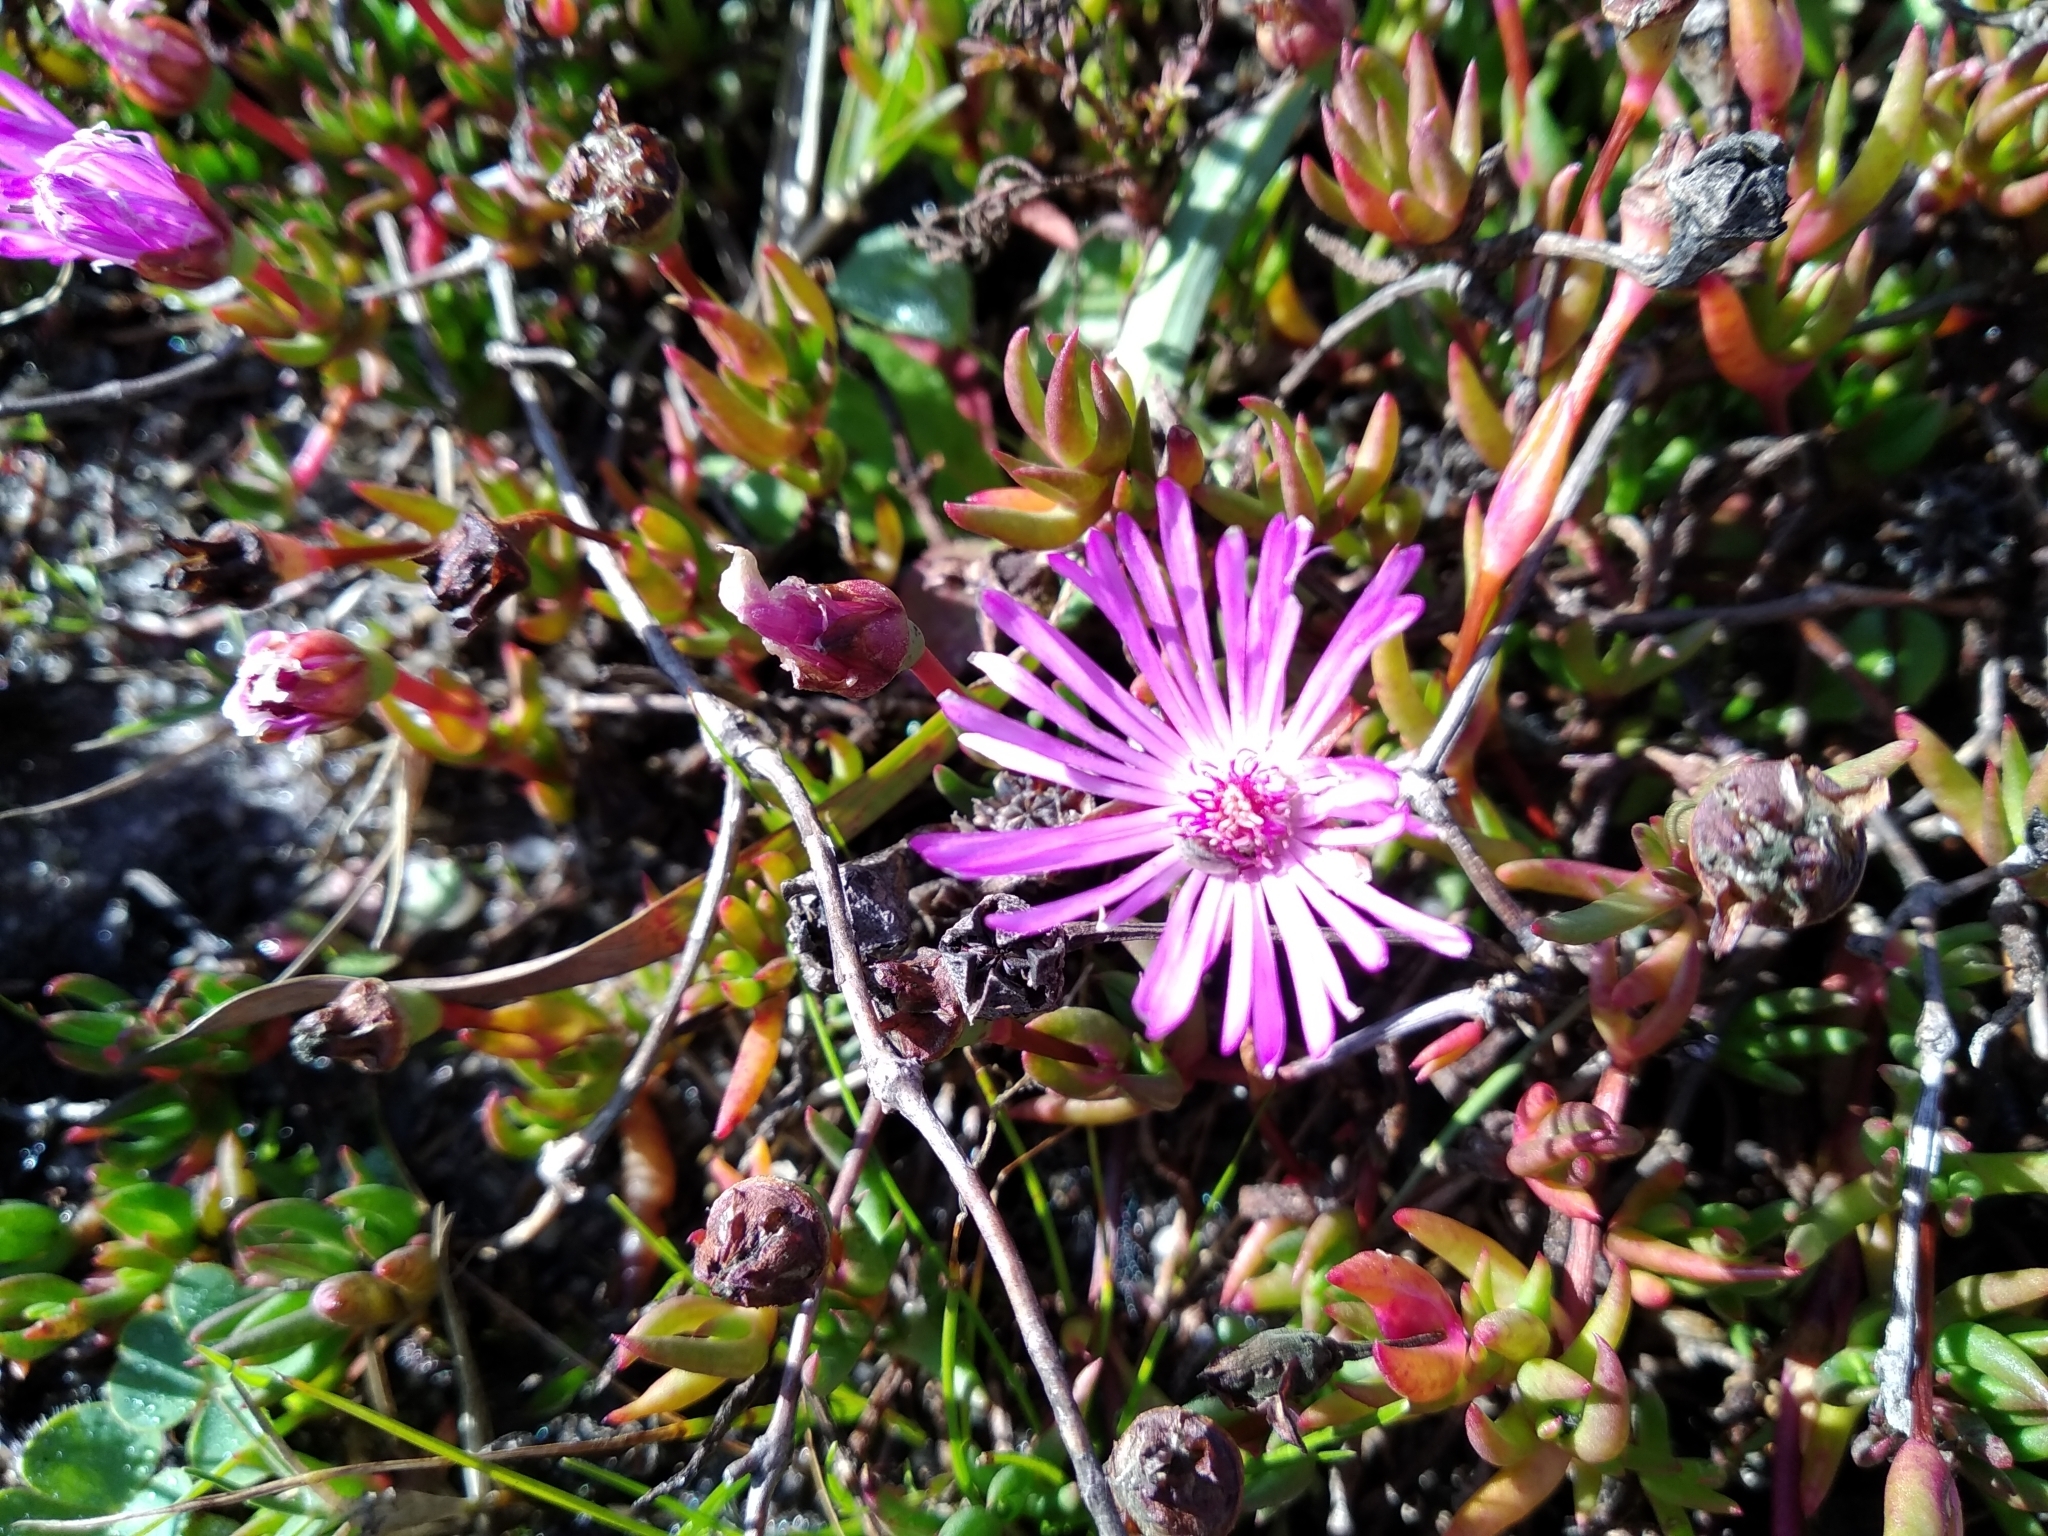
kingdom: Plantae
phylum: Tracheophyta
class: Magnoliopsida
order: Caryophyllales
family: Aizoaceae
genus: Lampranthus
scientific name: Lampranthus spiniformis
